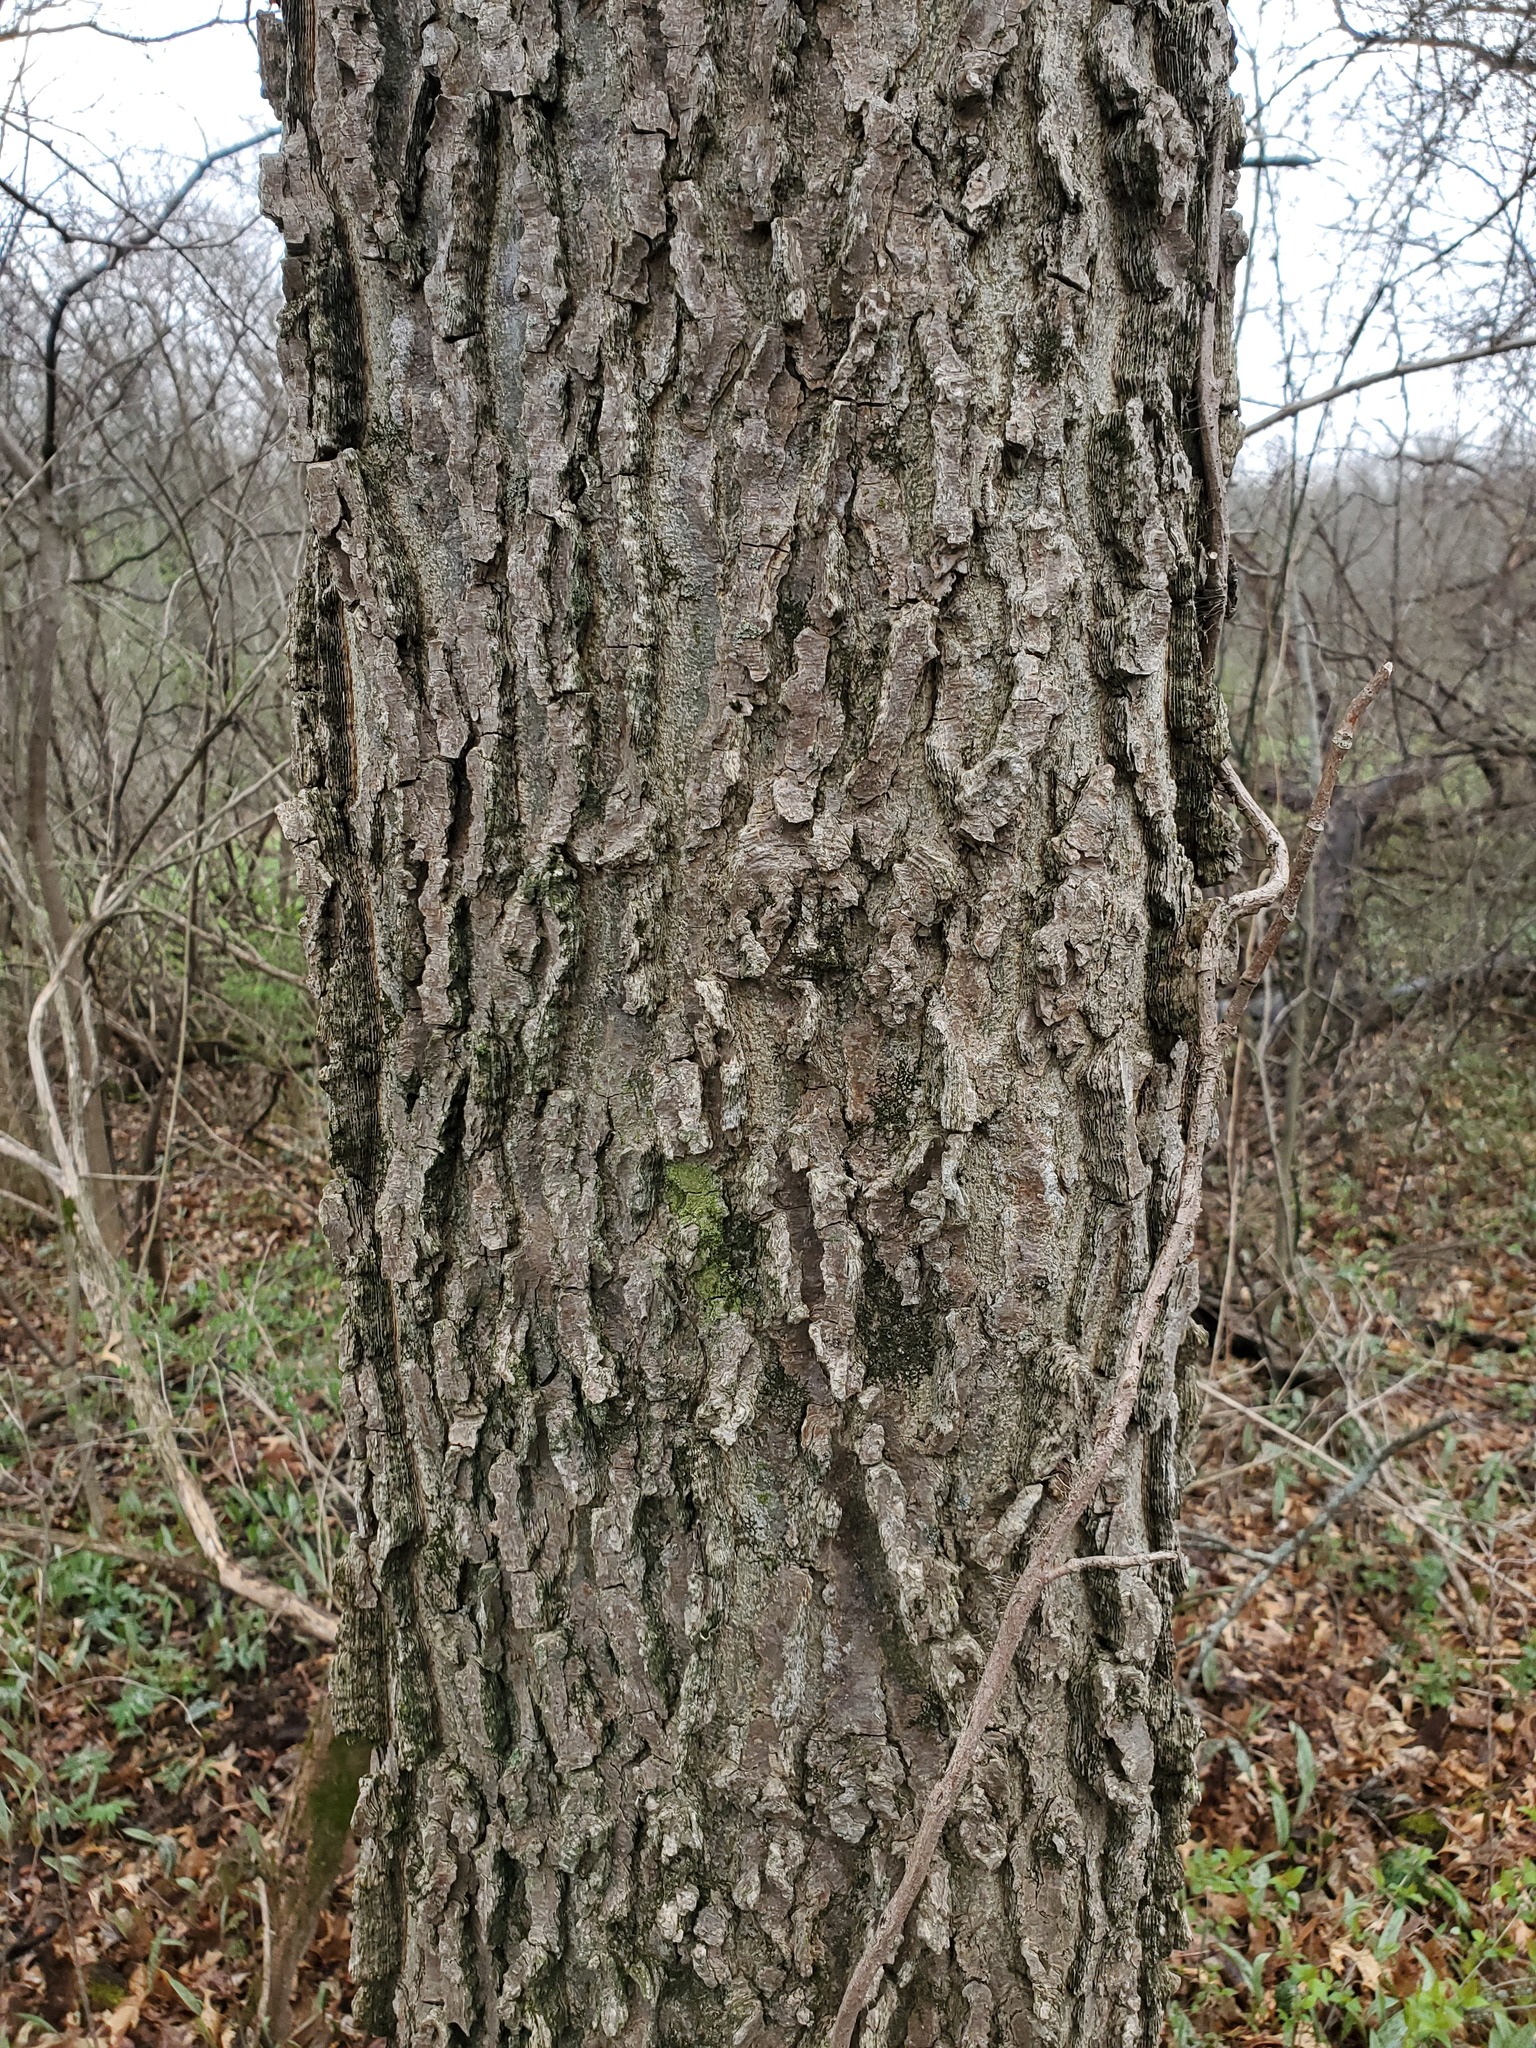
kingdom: Plantae
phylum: Tracheophyta
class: Magnoliopsida
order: Rosales
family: Cannabaceae
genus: Celtis
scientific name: Celtis occidentalis
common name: Common hackberry
